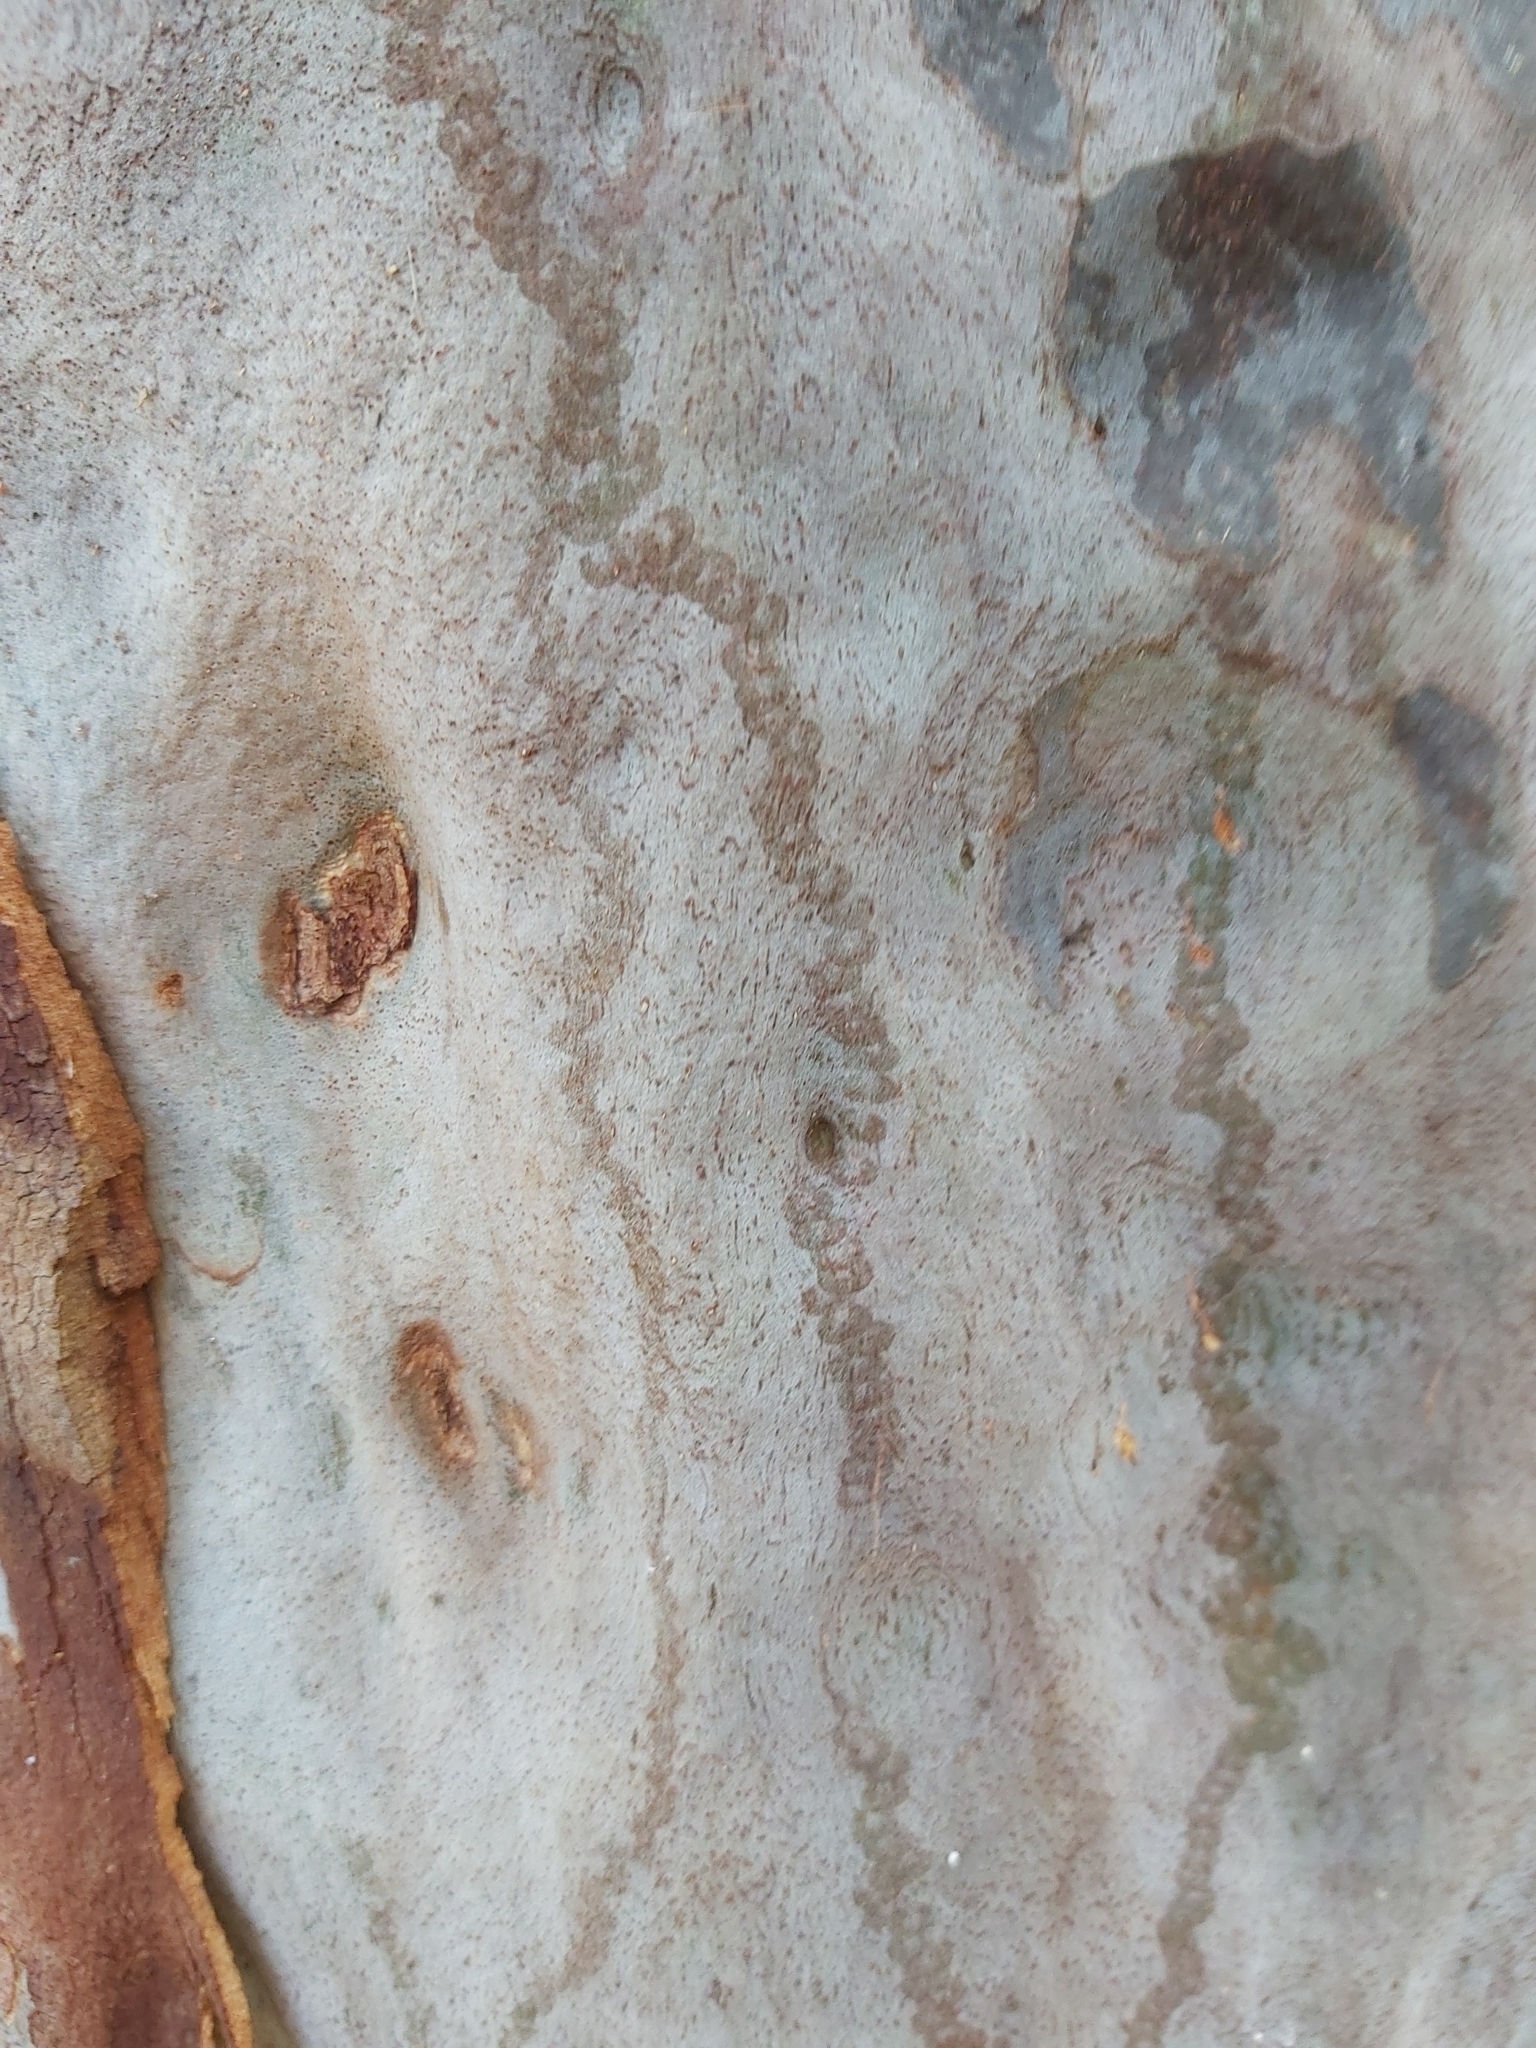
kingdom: Animalia
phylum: Mollusca
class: Gastropoda
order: Stylommatophora
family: Athoracophoridae
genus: Triboniophorus
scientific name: Triboniophorus graeffei
